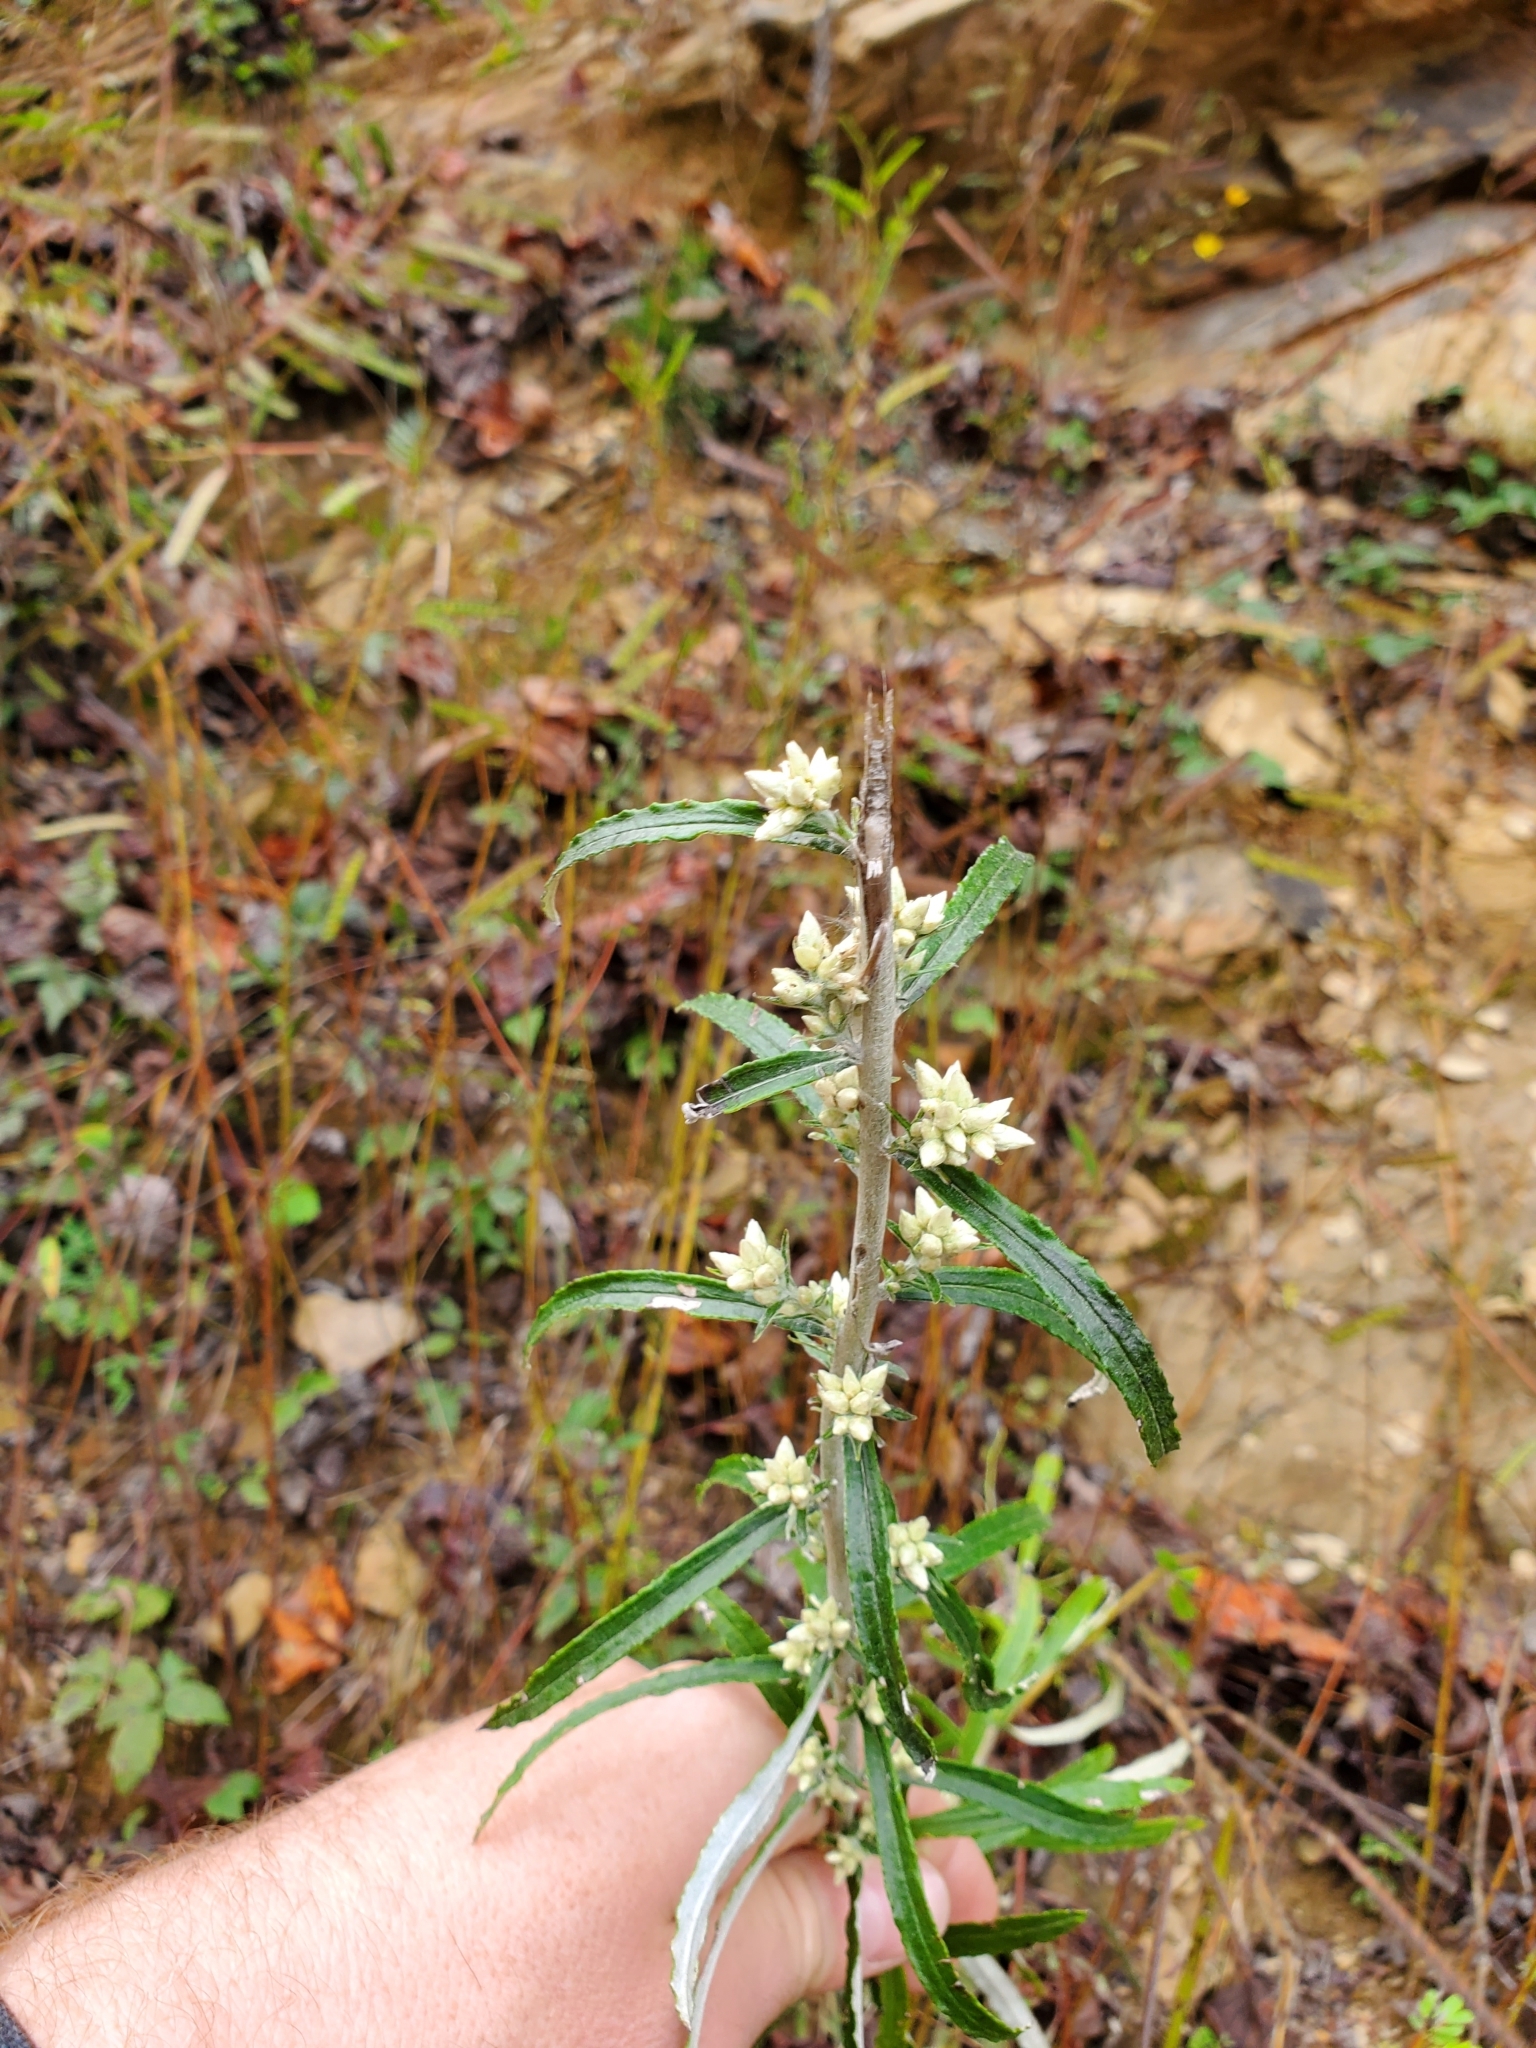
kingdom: Plantae
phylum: Tracheophyta
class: Magnoliopsida
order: Asterales
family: Asteraceae
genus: Pseudognaphalium
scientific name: Pseudognaphalium obtusifolium
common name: Eastern rabbit-tobacco
